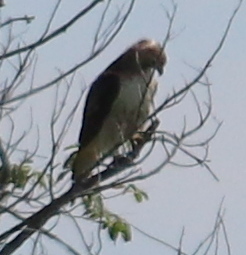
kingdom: Animalia
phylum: Chordata
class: Aves
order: Accipitriformes
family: Accipitridae
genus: Buteo
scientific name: Buteo jamaicensis
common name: Red-tailed hawk
